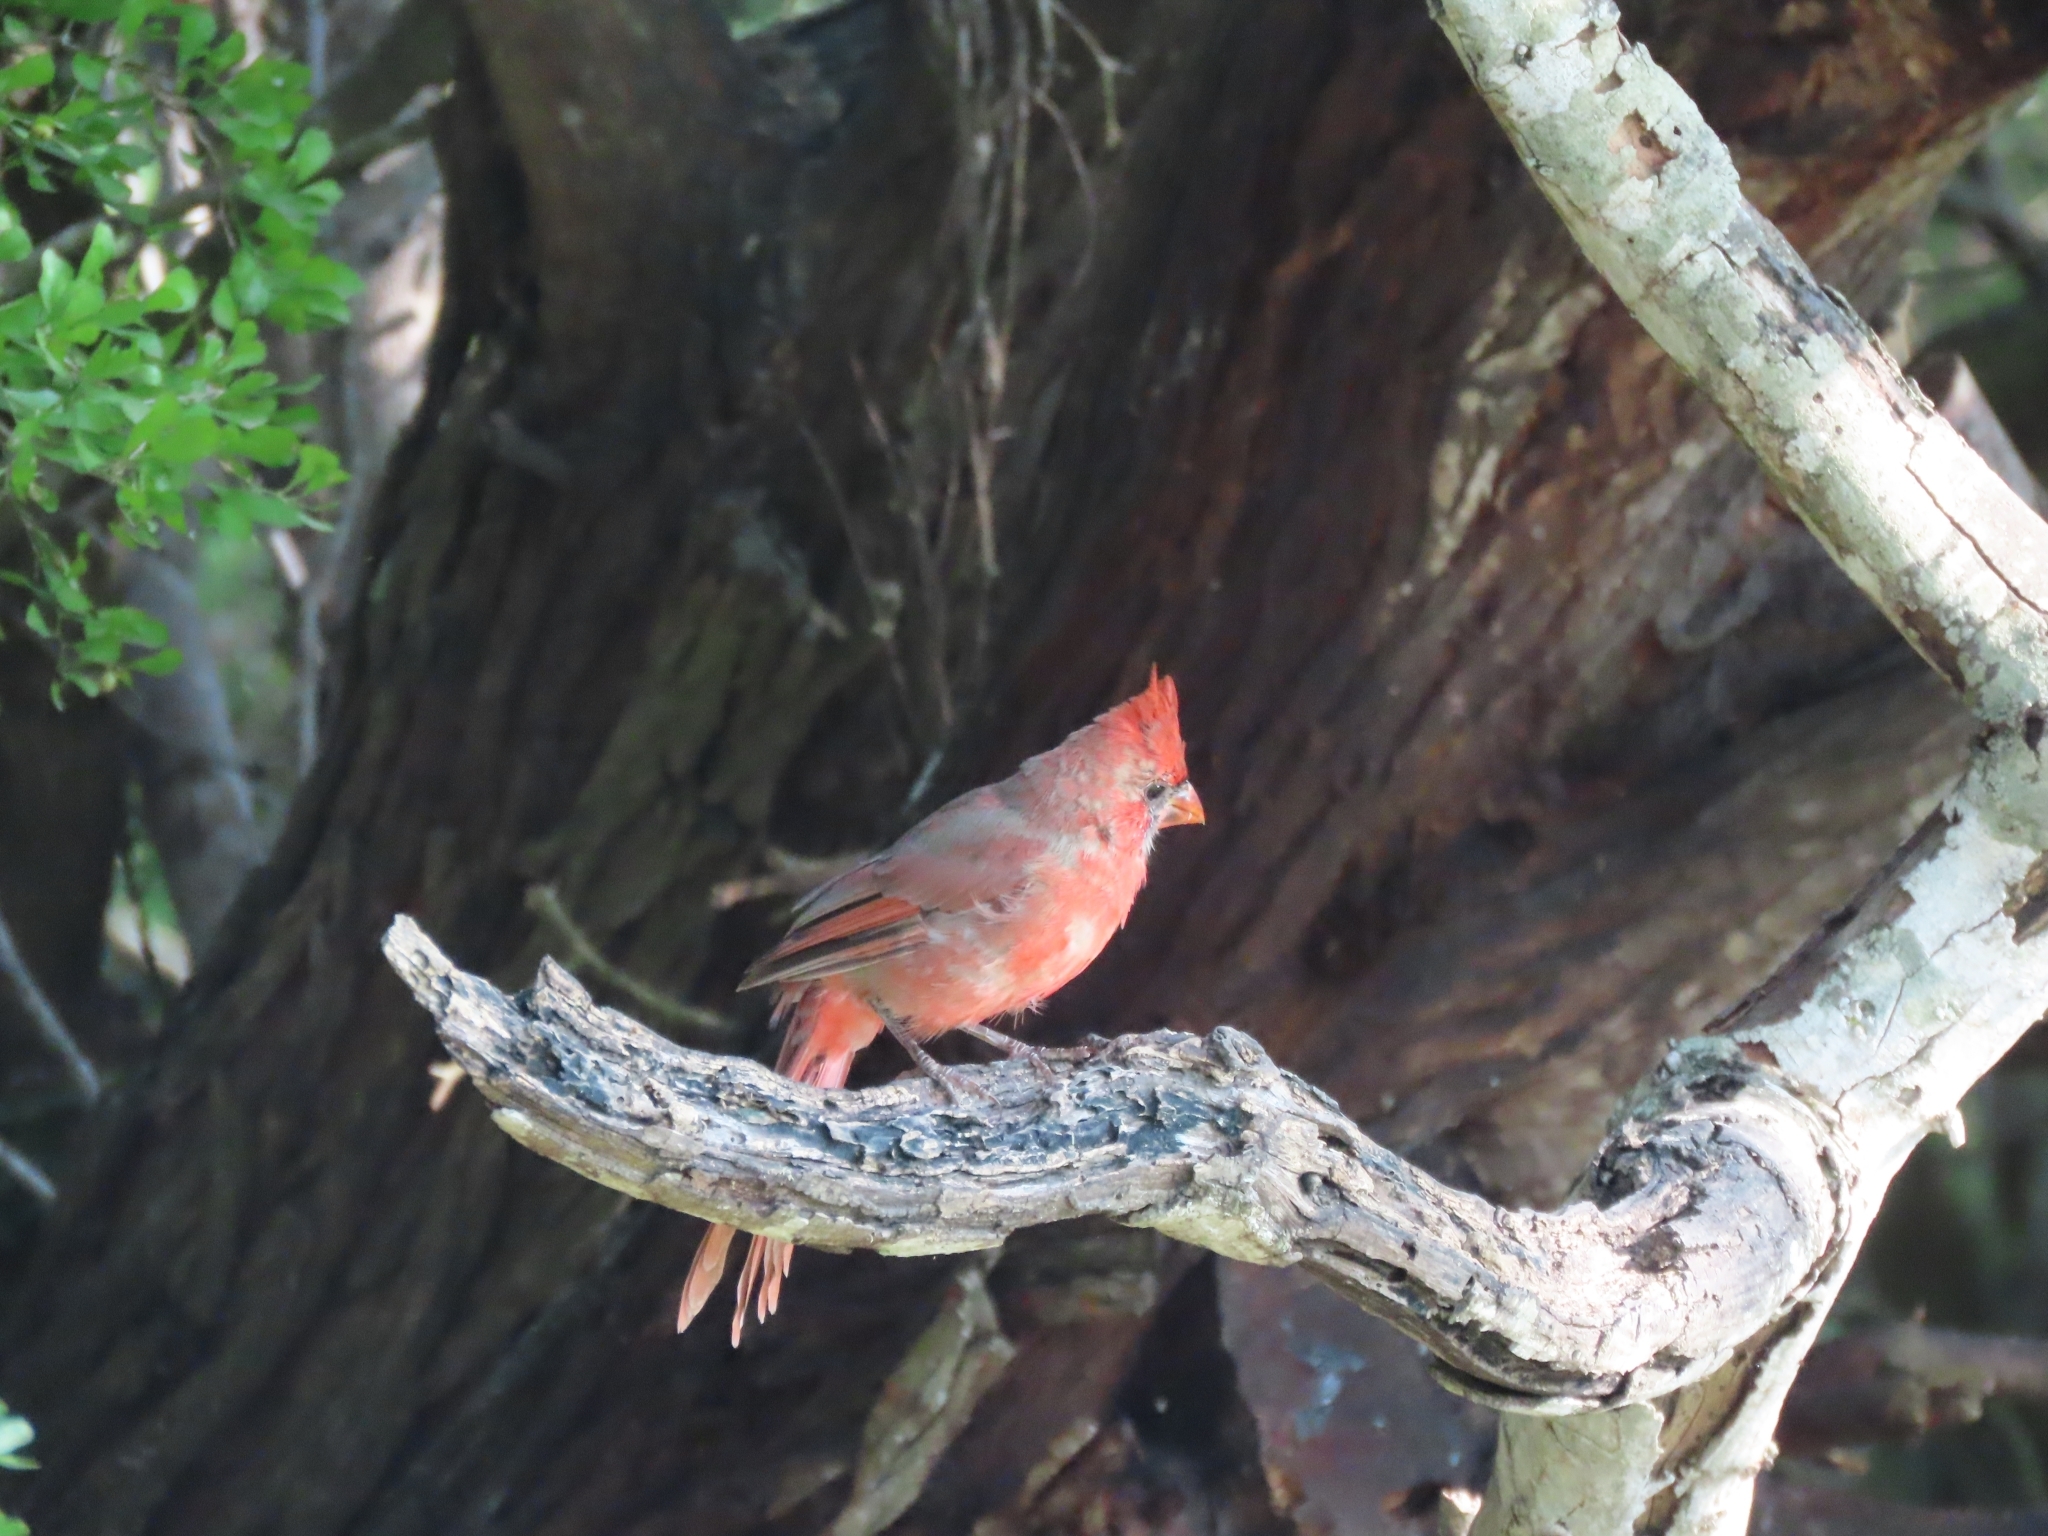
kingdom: Animalia
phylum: Chordata
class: Aves
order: Passeriformes
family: Cardinalidae
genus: Cardinalis
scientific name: Cardinalis cardinalis
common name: Northern cardinal
